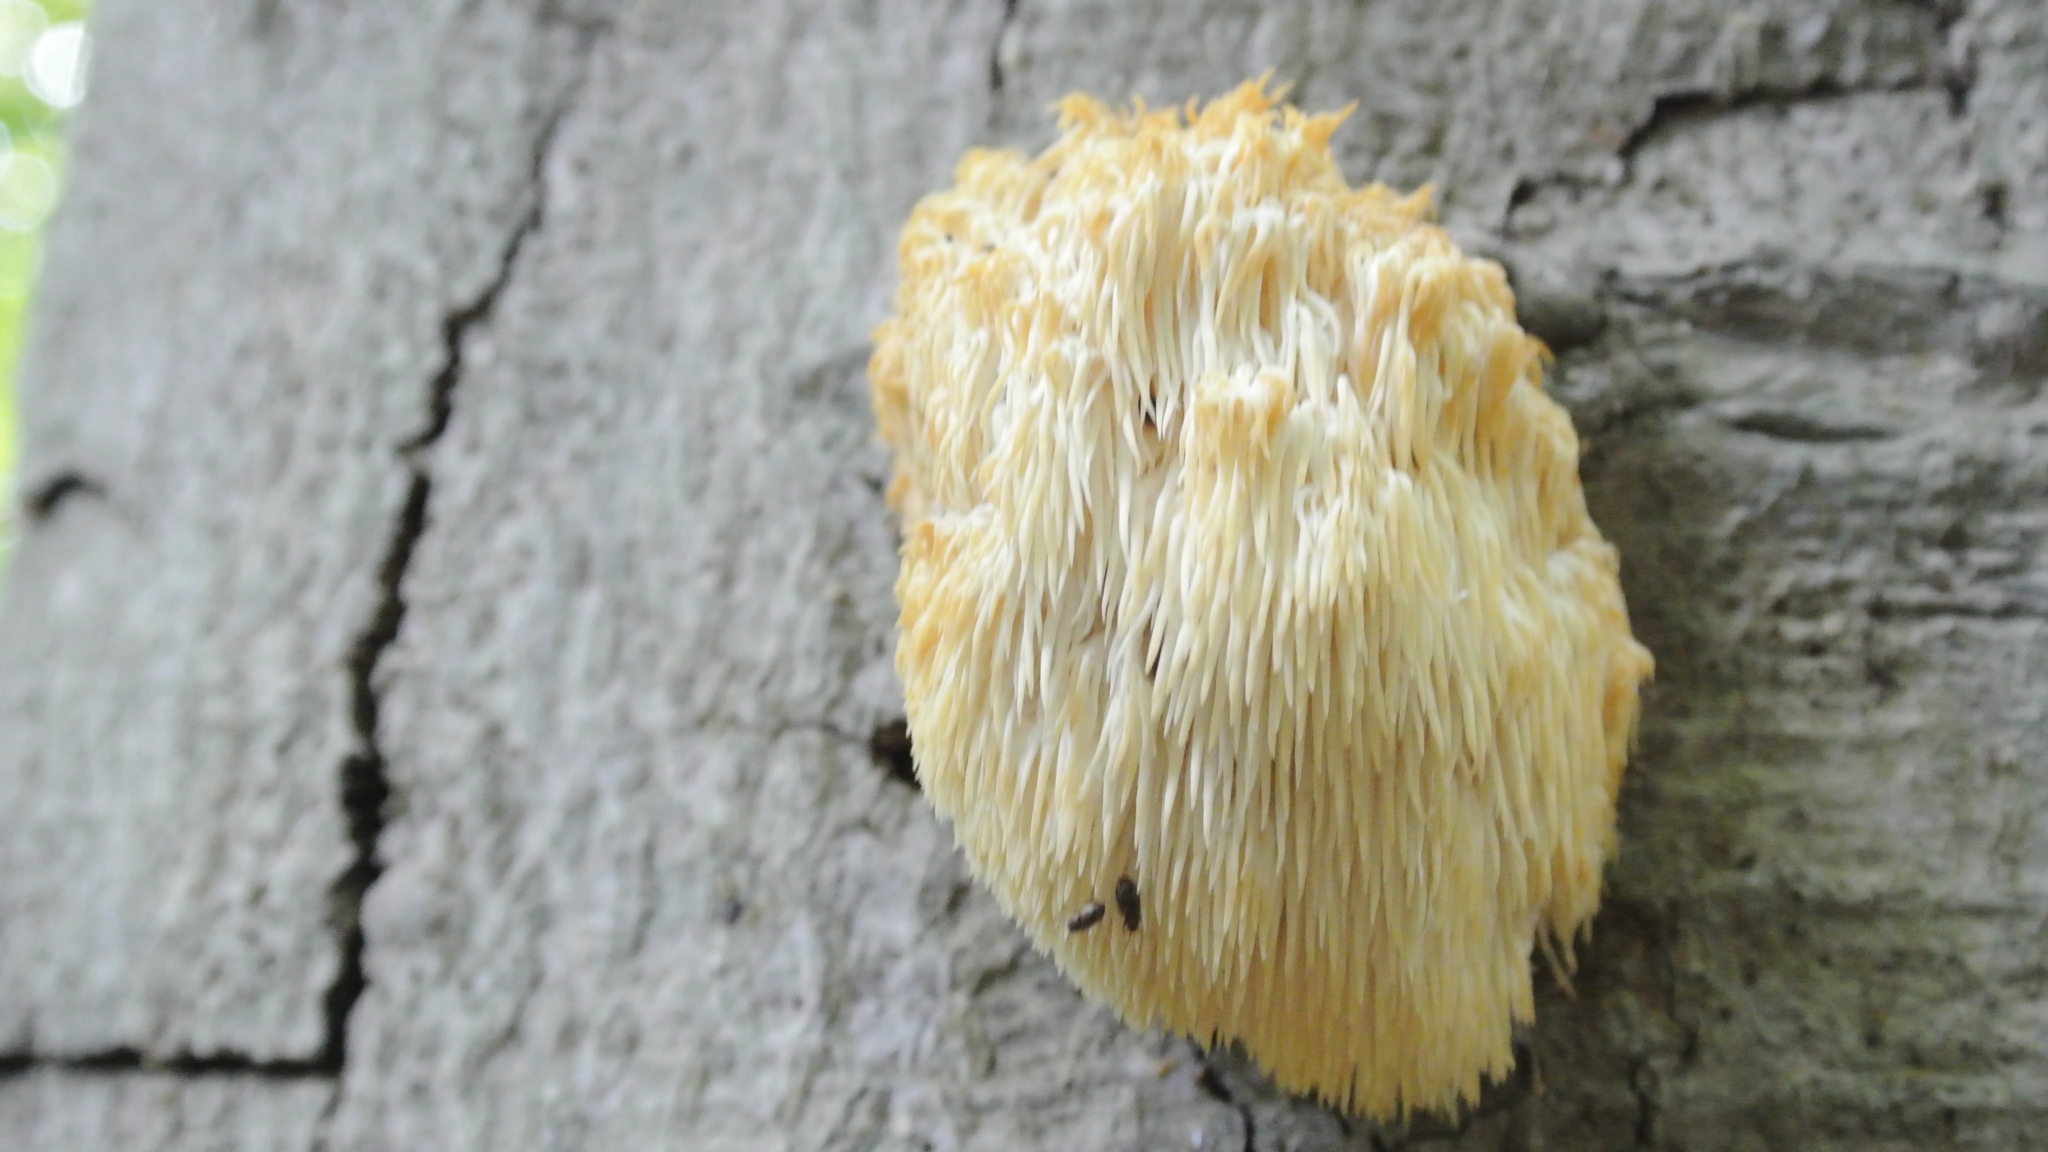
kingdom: Fungi
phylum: Basidiomycota
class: Agaricomycetes
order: Russulales
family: Hericiaceae
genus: Hericium
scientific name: Hericium erinaceus
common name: Bearded tooth
